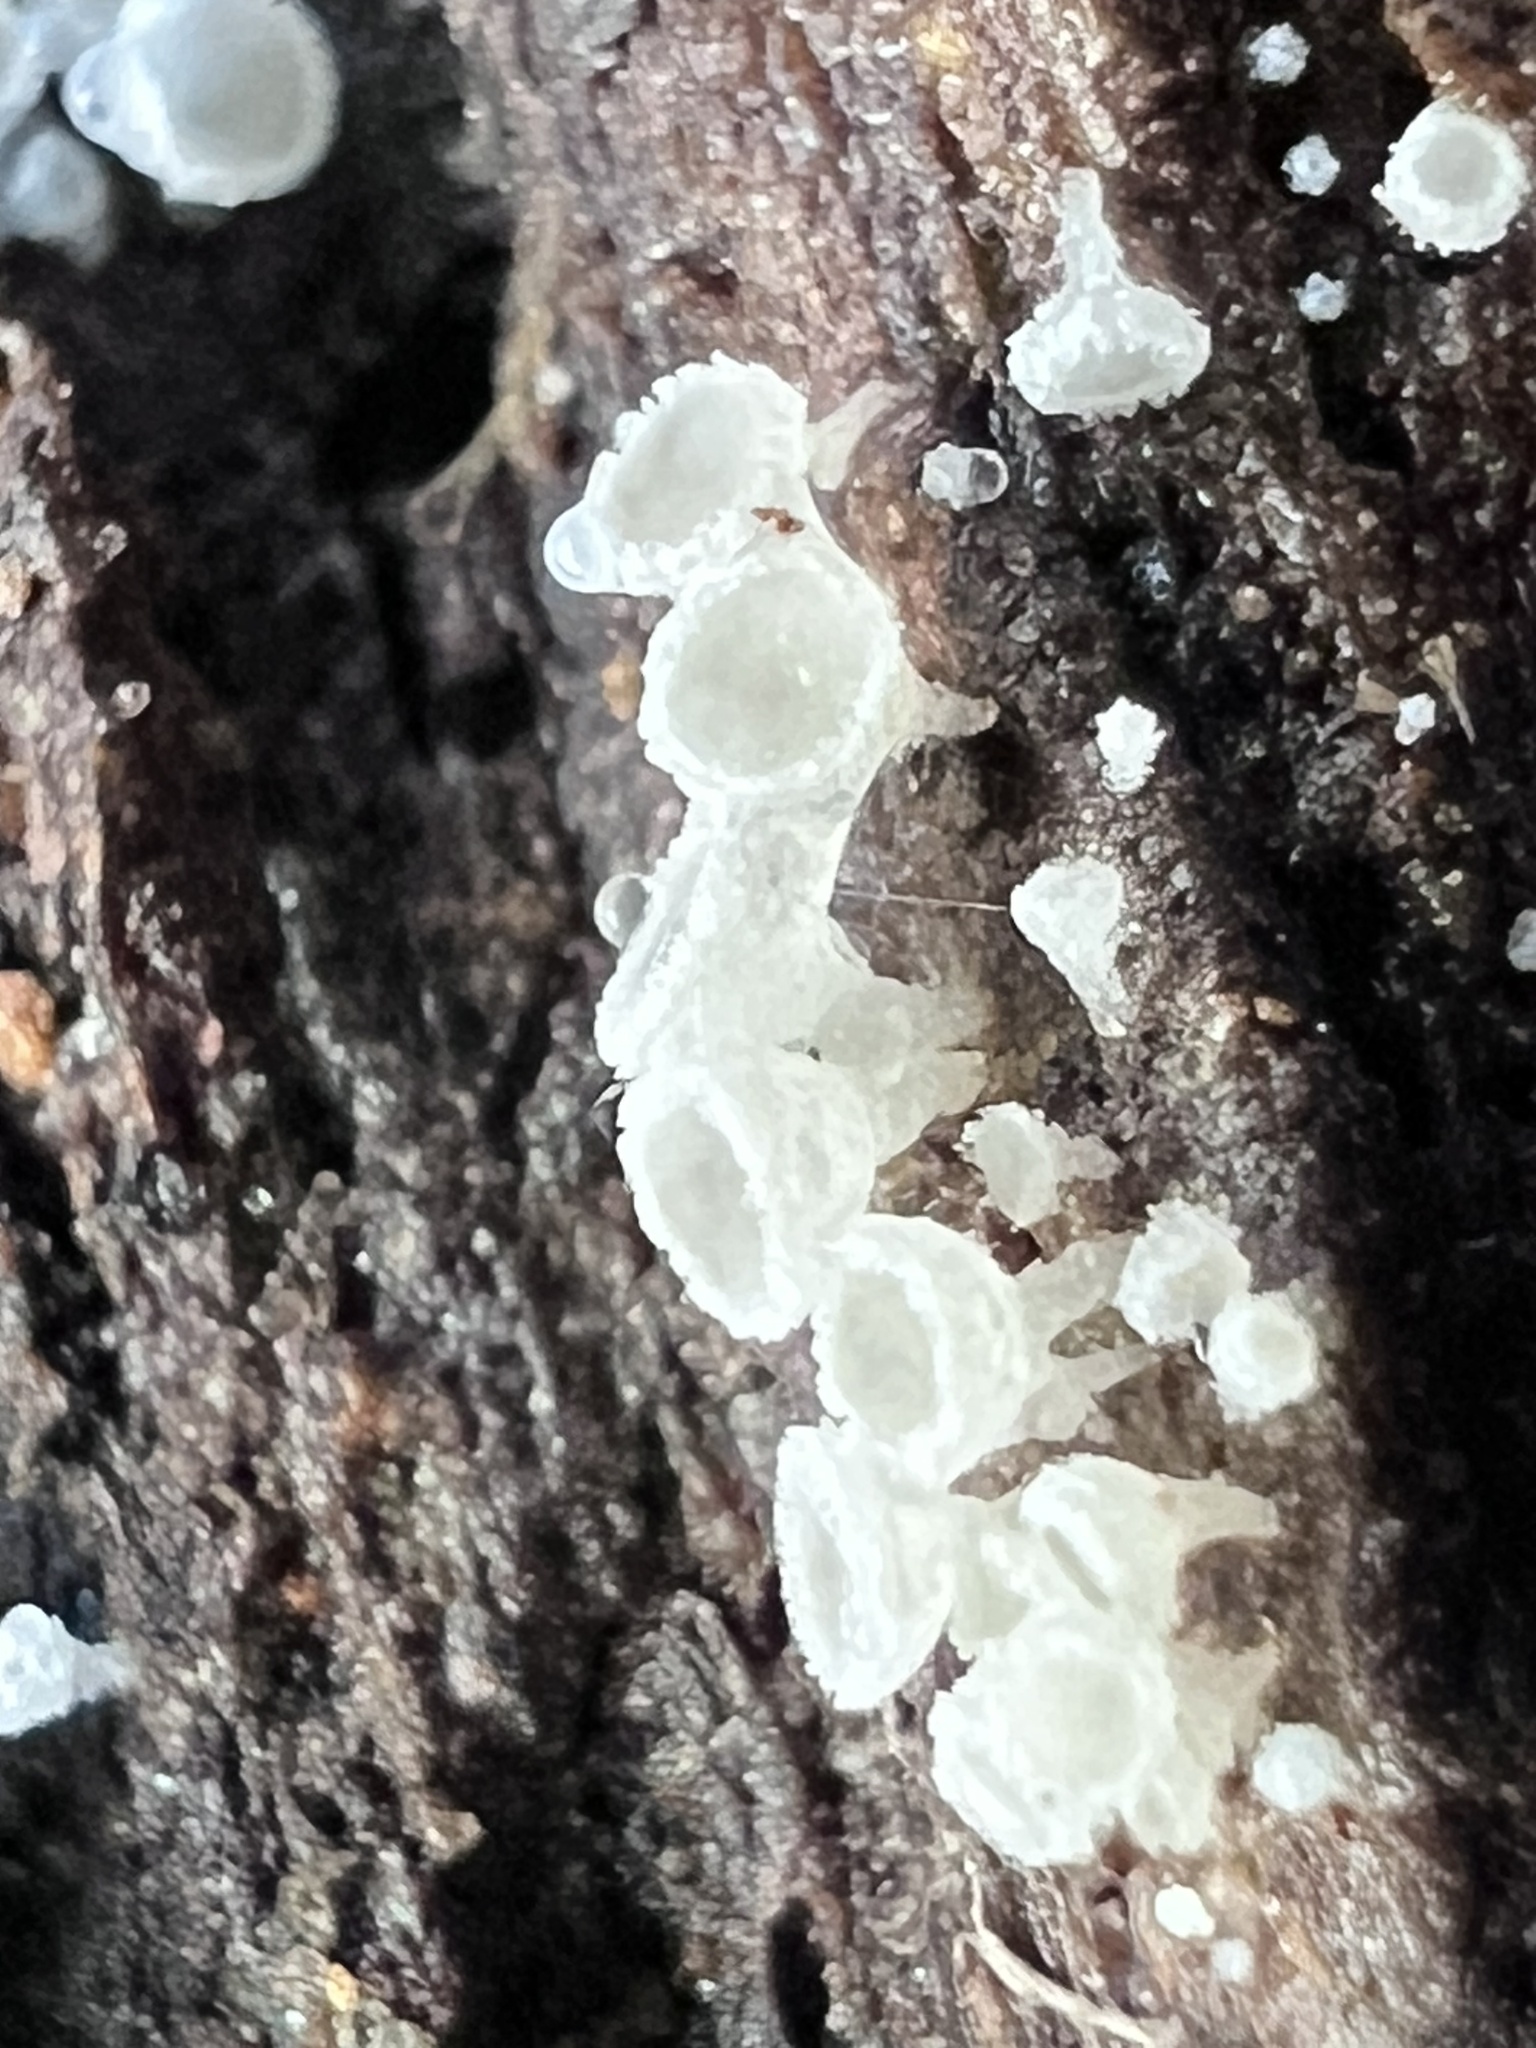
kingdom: Fungi
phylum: Ascomycota
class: Leotiomycetes
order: Helotiales
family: Lachnaceae
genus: Lachnum
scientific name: Lachnum virgineum
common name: Snowy disco
